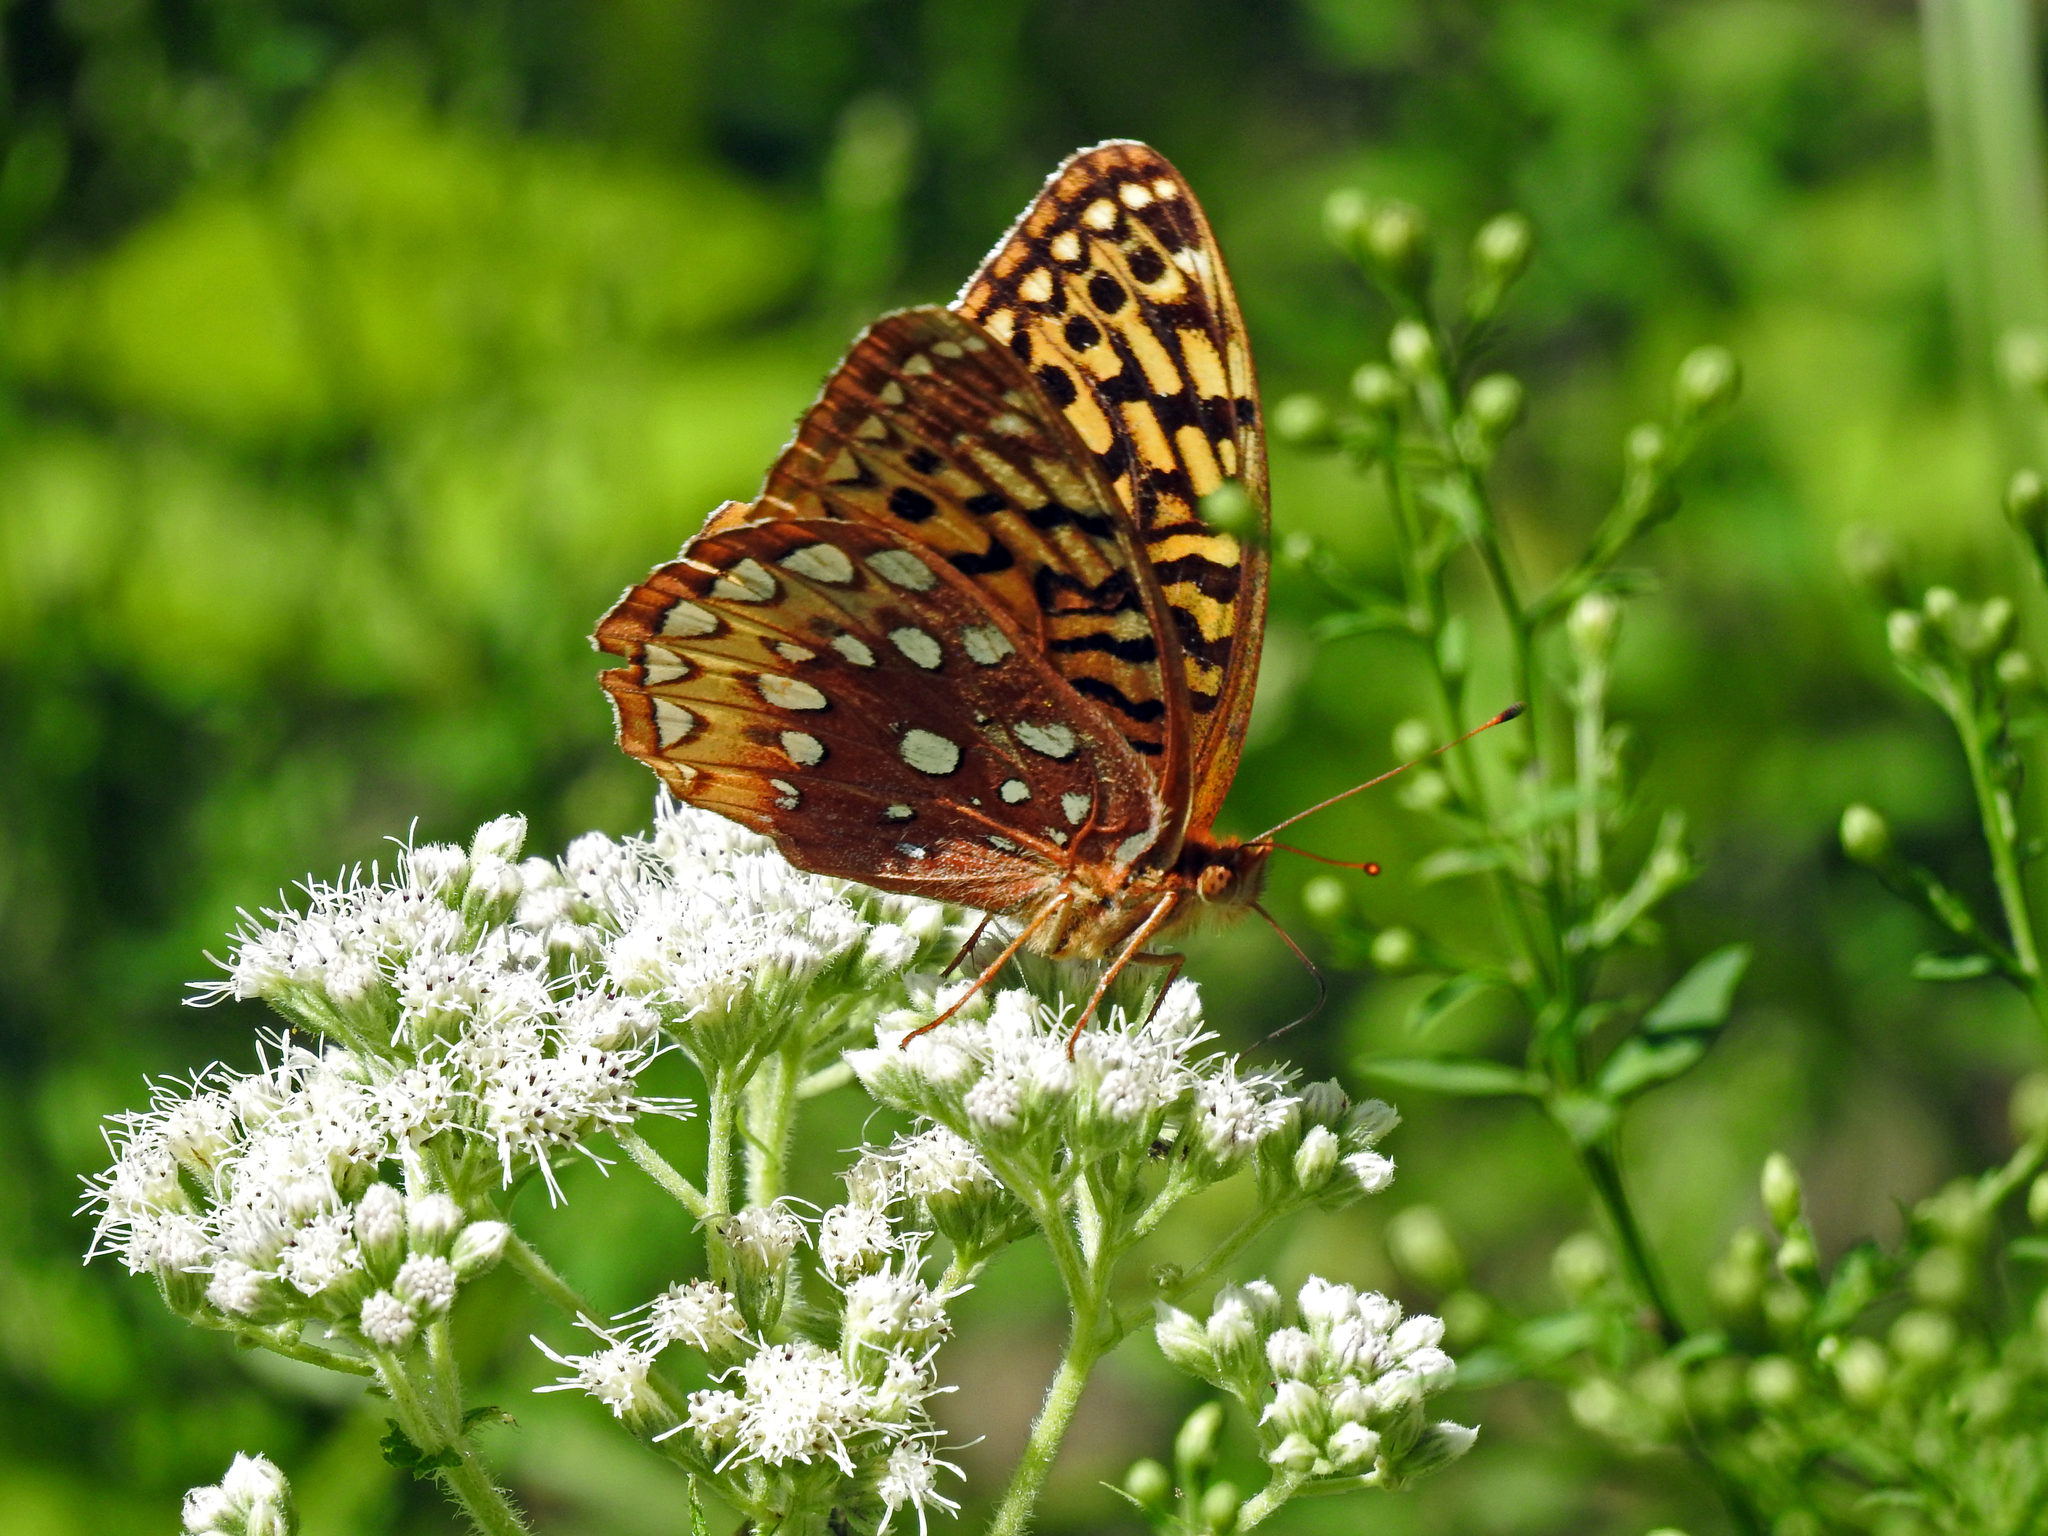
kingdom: Animalia
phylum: Arthropoda
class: Insecta
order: Lepidoptera
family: Nymphalidae
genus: Speyeria
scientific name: Speyeria cybele
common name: Great spangled fritillary
